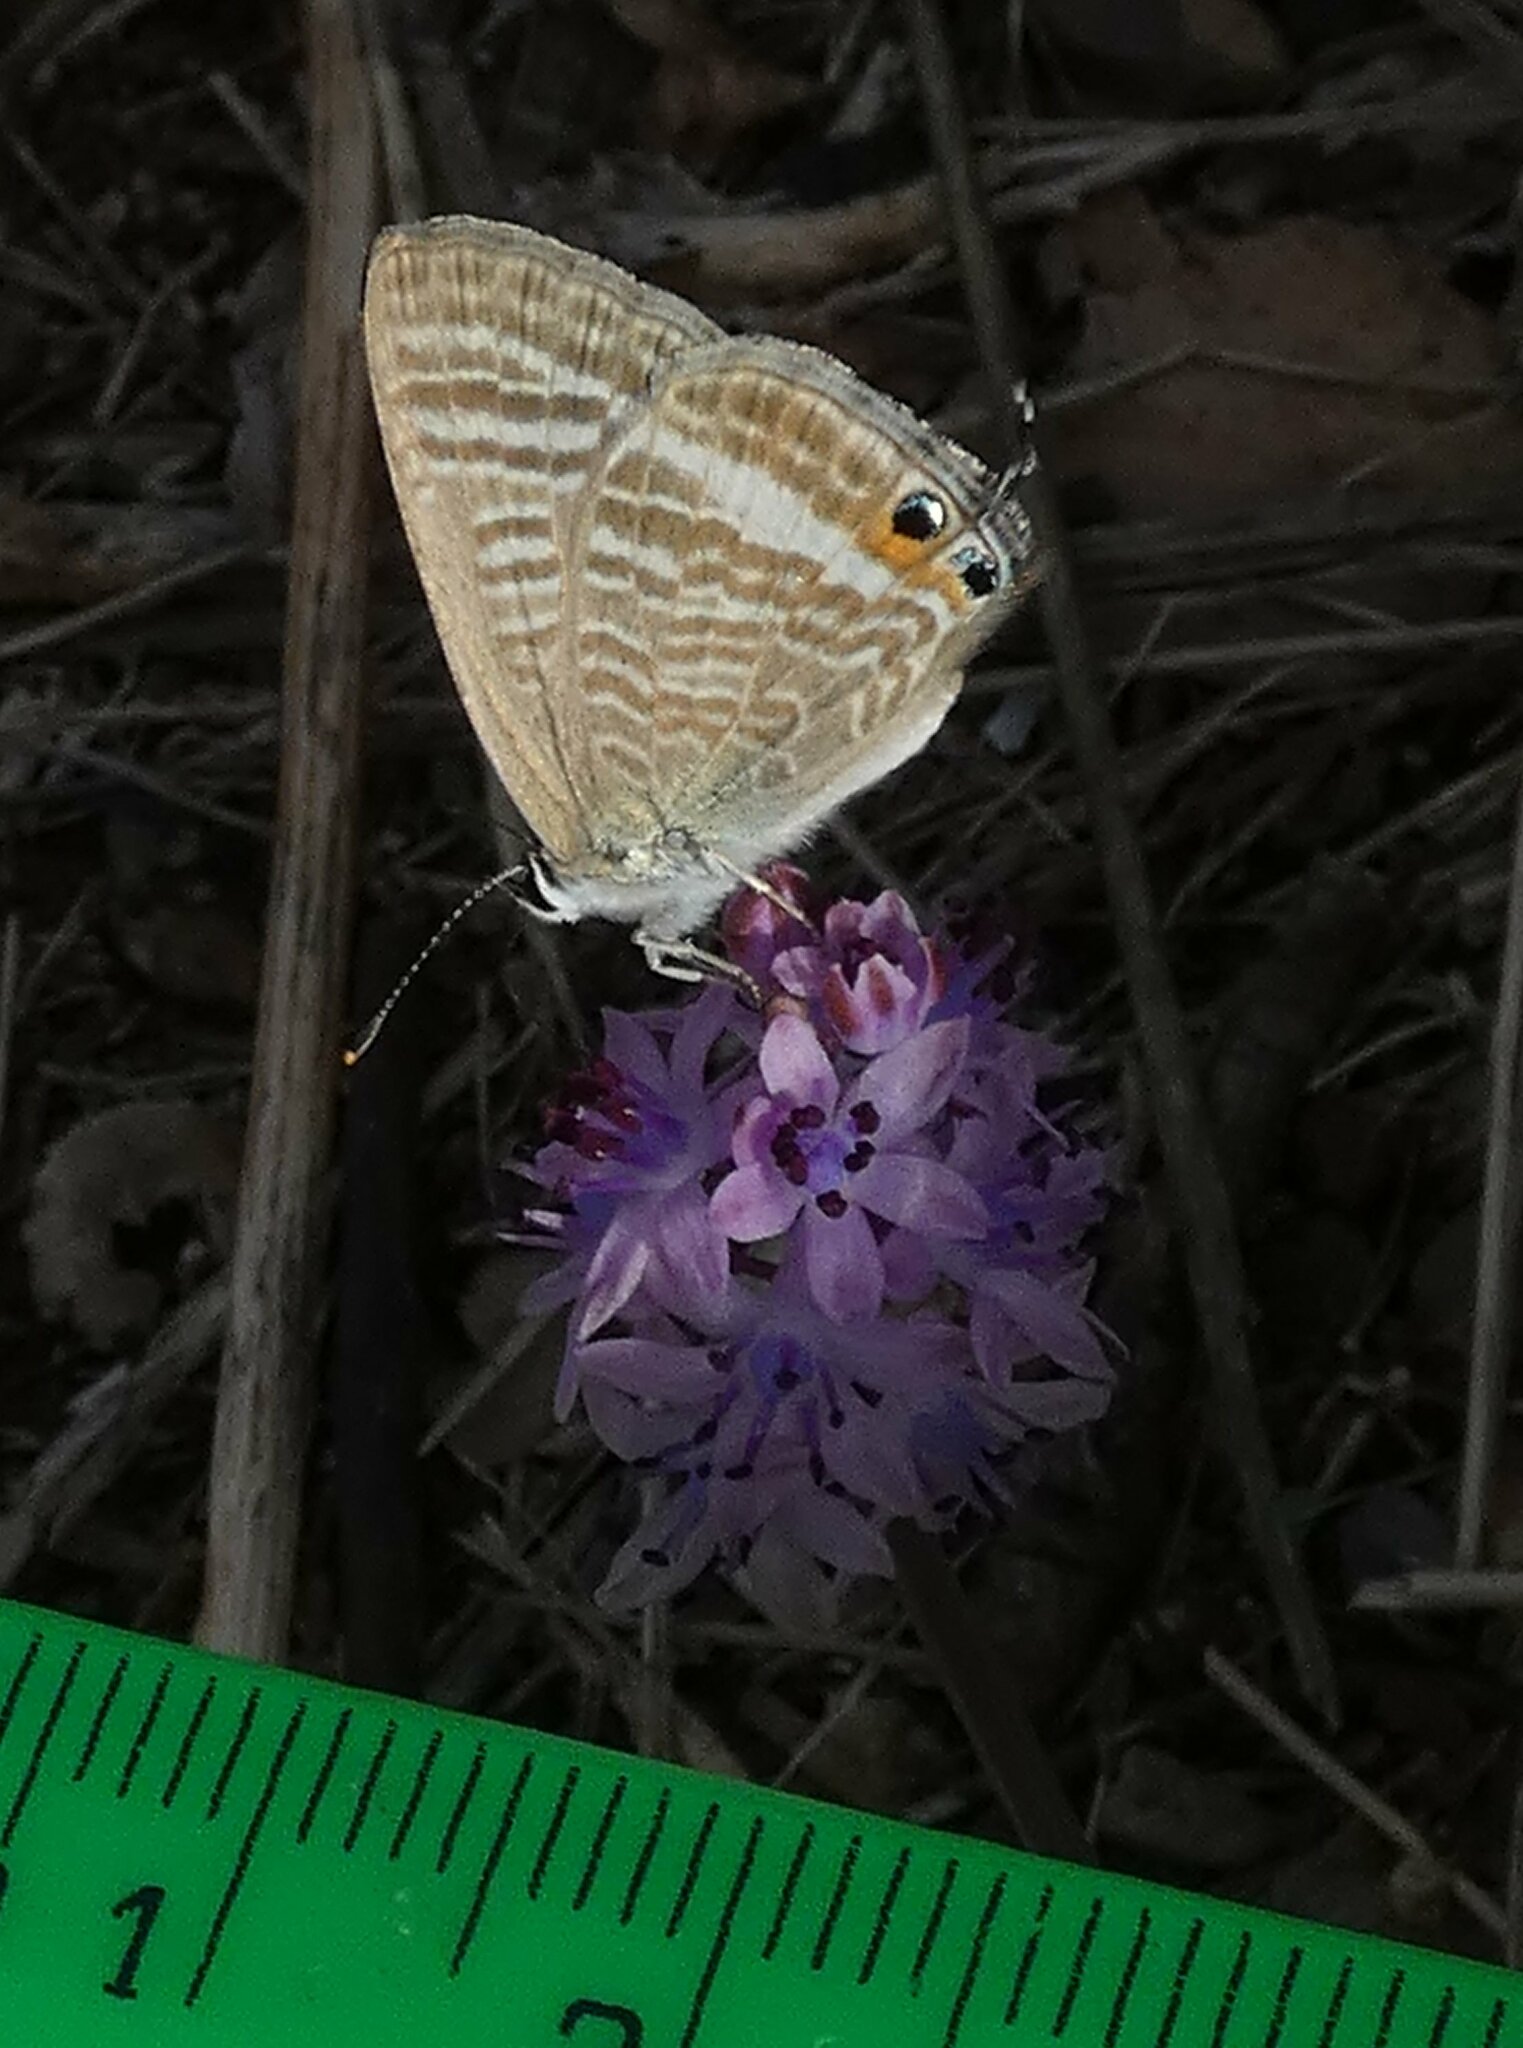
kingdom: Animalia
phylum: Arthropoda
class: Insecta
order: Lepidoptera
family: Lycaenidae
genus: Lampides
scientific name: Lampides boeticus
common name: Long-tailed blue
